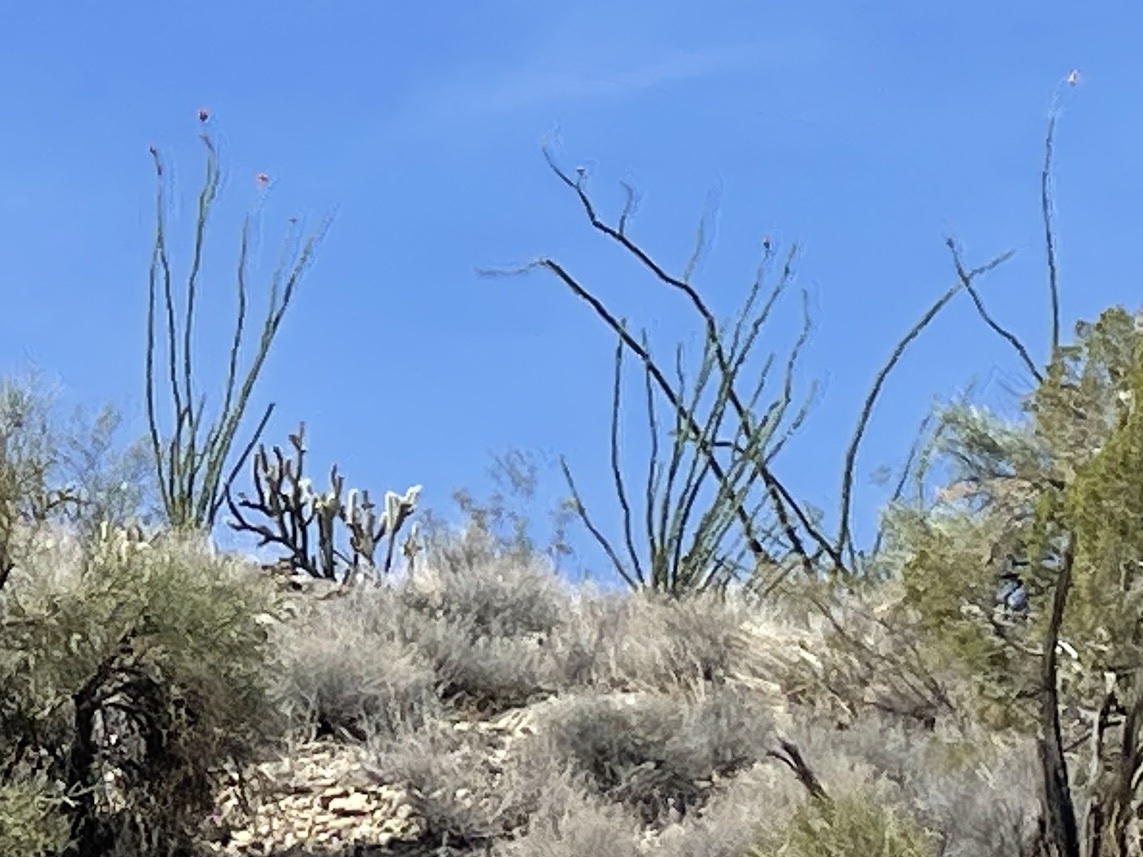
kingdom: Plantae
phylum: Tracheophyta
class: Magnoliopsida
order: Ericales
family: Fouquieriaceae
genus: Fouquieria
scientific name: Fouquieria splendens
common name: Vine-cactus
